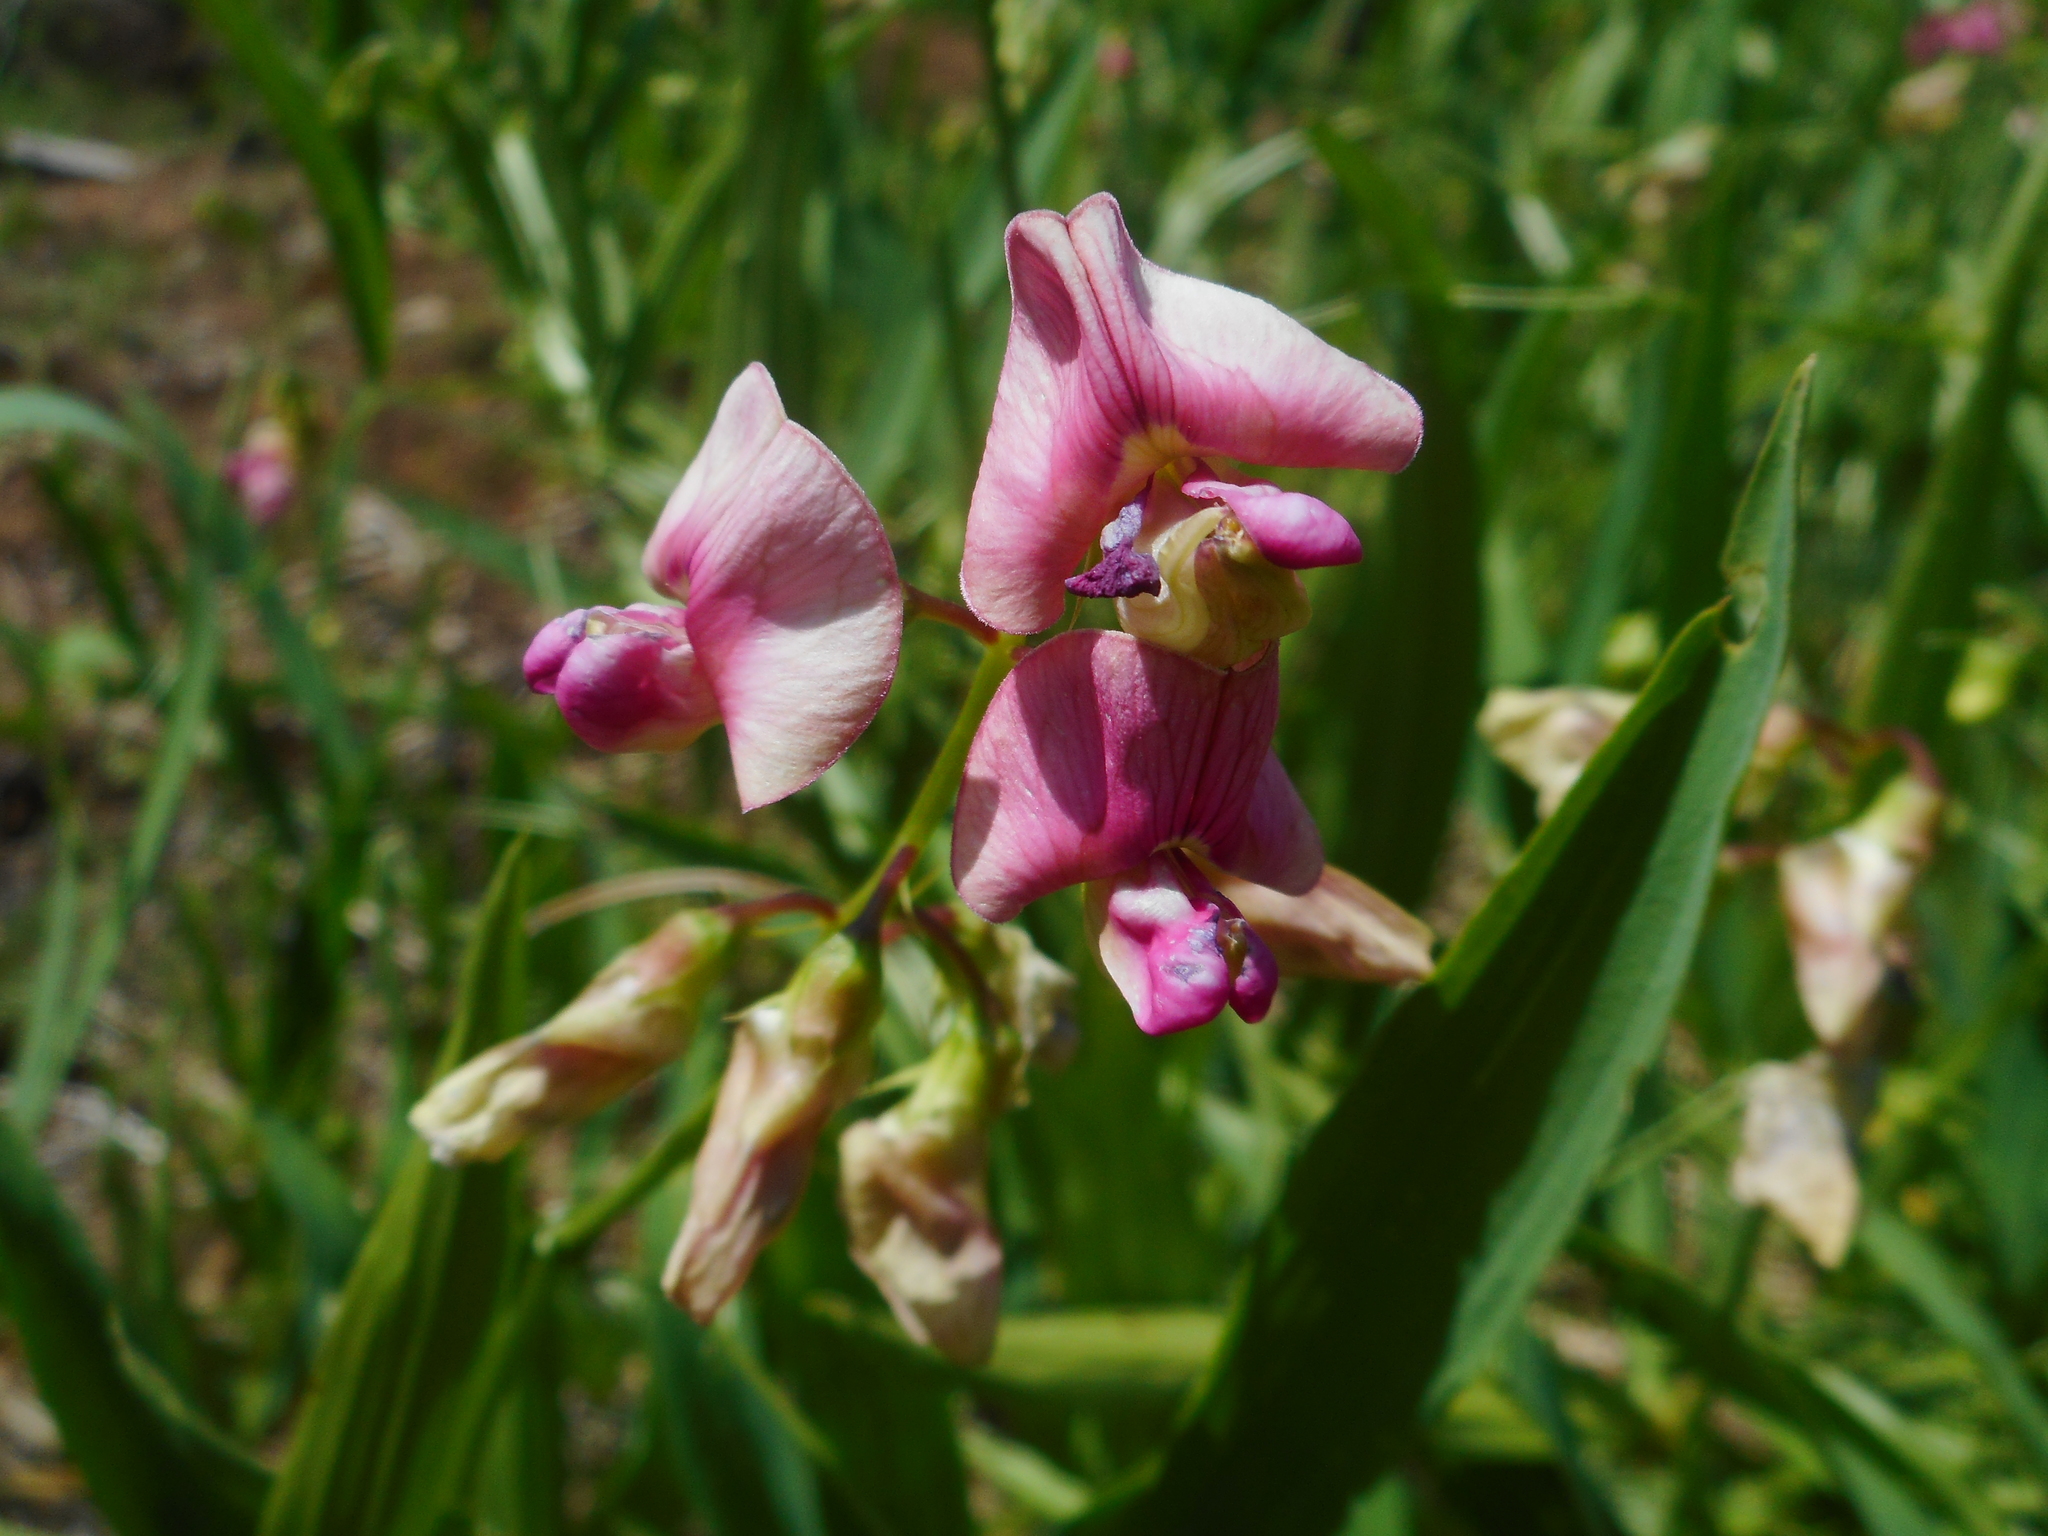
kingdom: Plantae
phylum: Tracheophyta
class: Magnoliopsida
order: Fabales
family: Fabaceae
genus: Lathyrus
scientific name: Lathyrus sylvestris
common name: Flat pea
